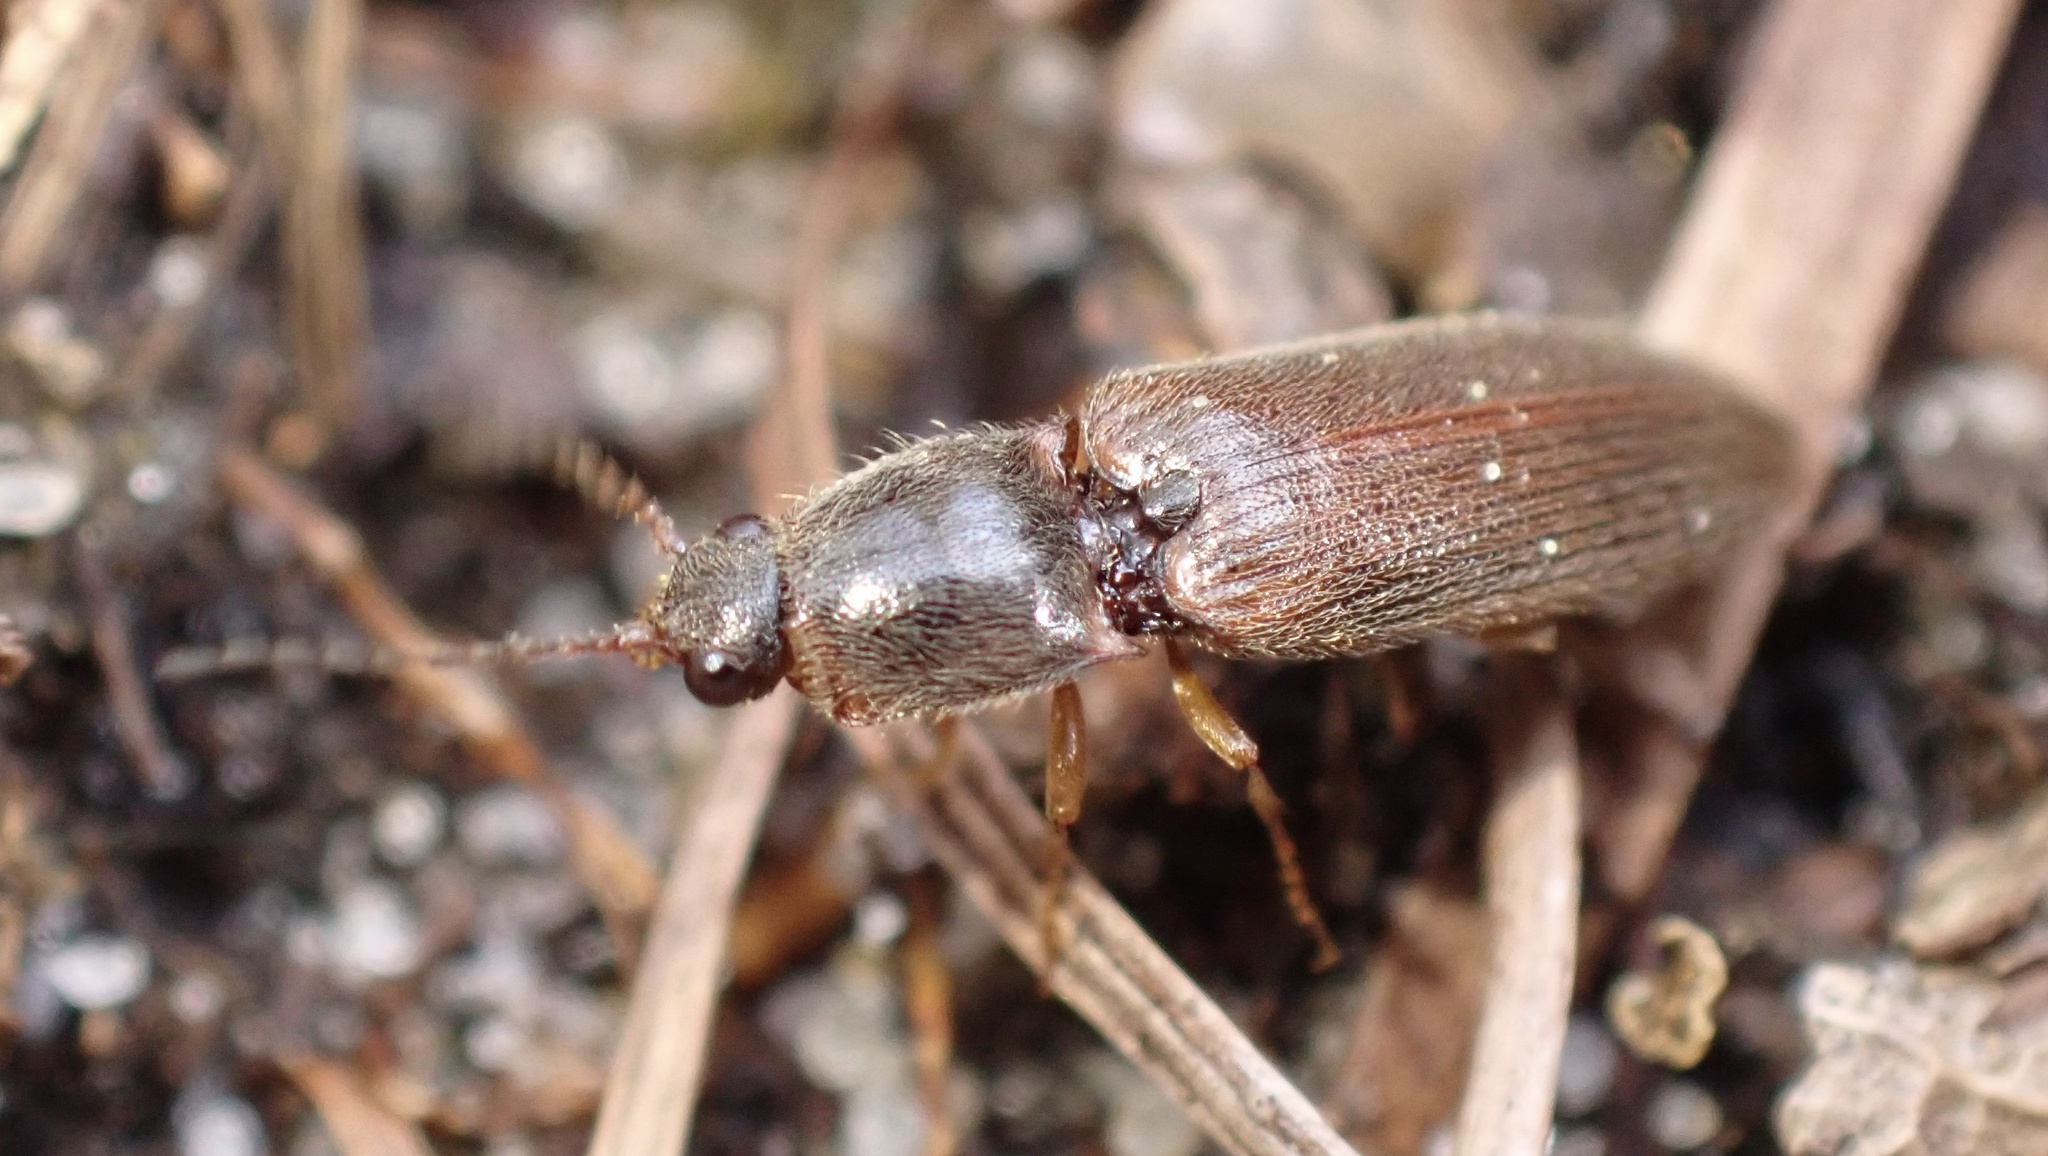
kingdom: Animalia
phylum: Arthropoda
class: Insecta
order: Coleoptera
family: Elateridae
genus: Athous
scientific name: Athous subfuscus
